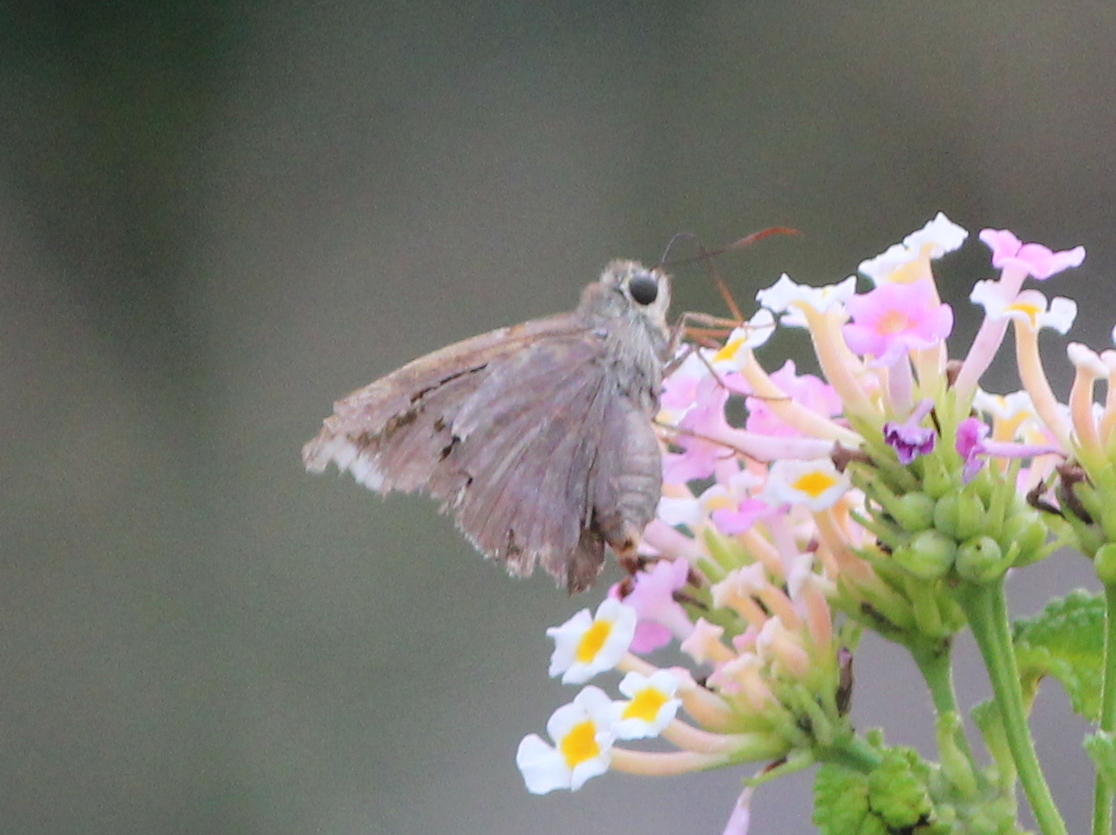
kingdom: Animalia
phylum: Arthropoda
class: Insecta
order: Lepidoptera
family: Hesperiidae
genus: Badamia
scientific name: Badamia exclamationis
